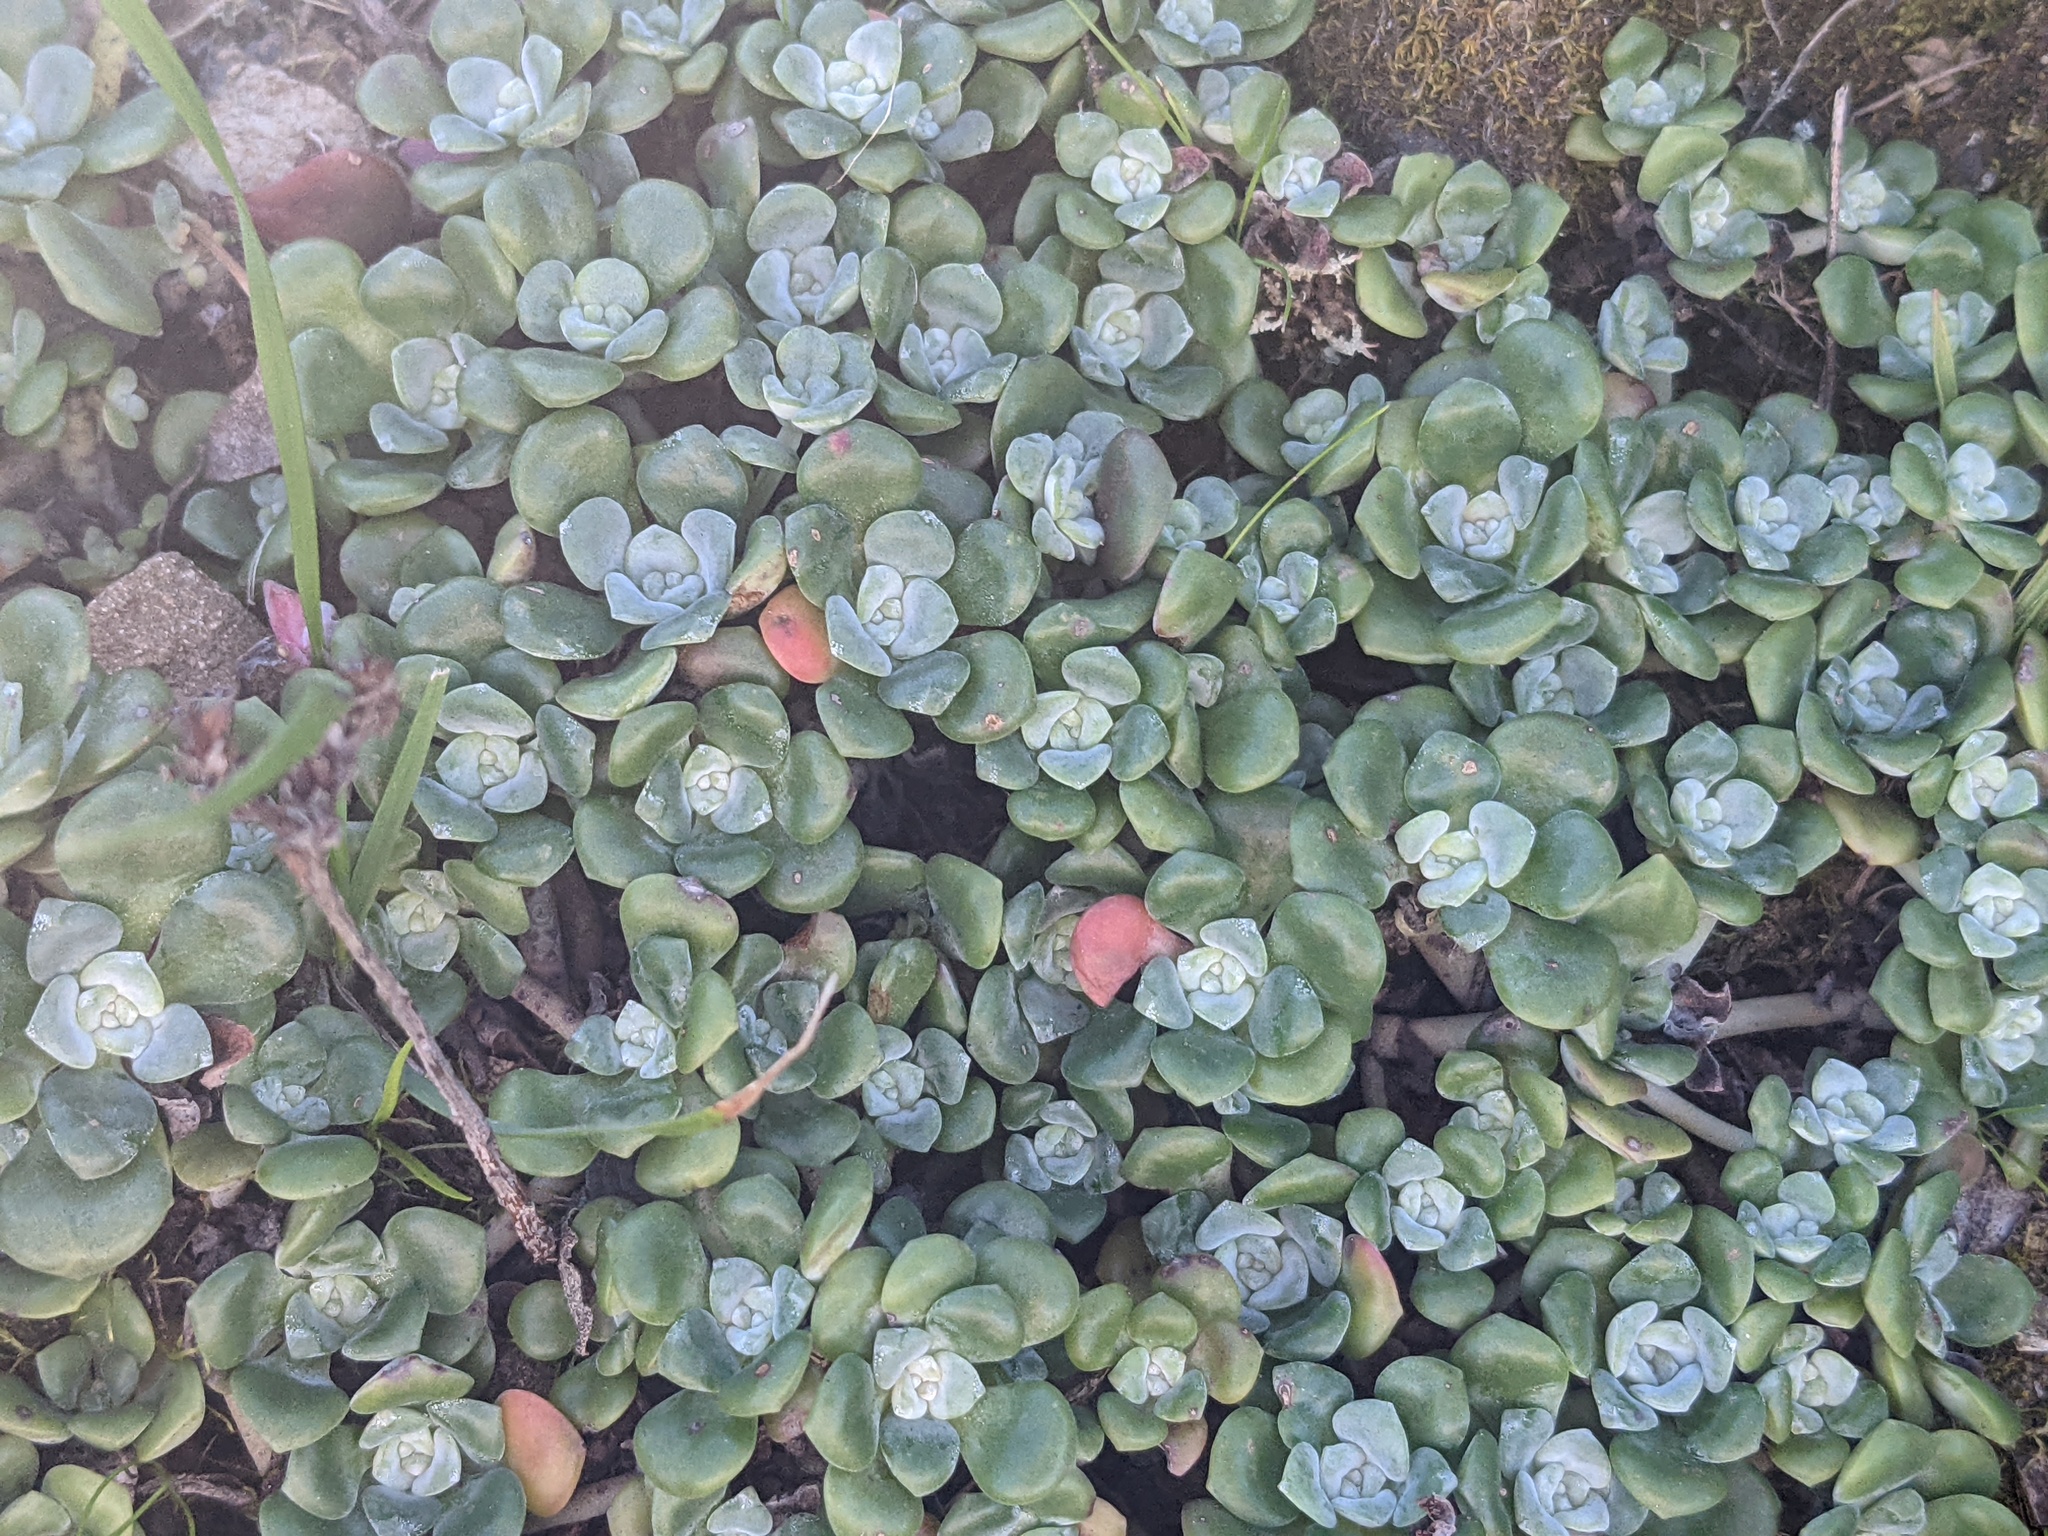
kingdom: Plantae
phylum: Tracheophyta
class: Magnoliopsida
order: Saxifragales
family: Crassulaceae
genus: Sedum
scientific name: Sedum spathulifolium
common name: Colorado stonecrop
